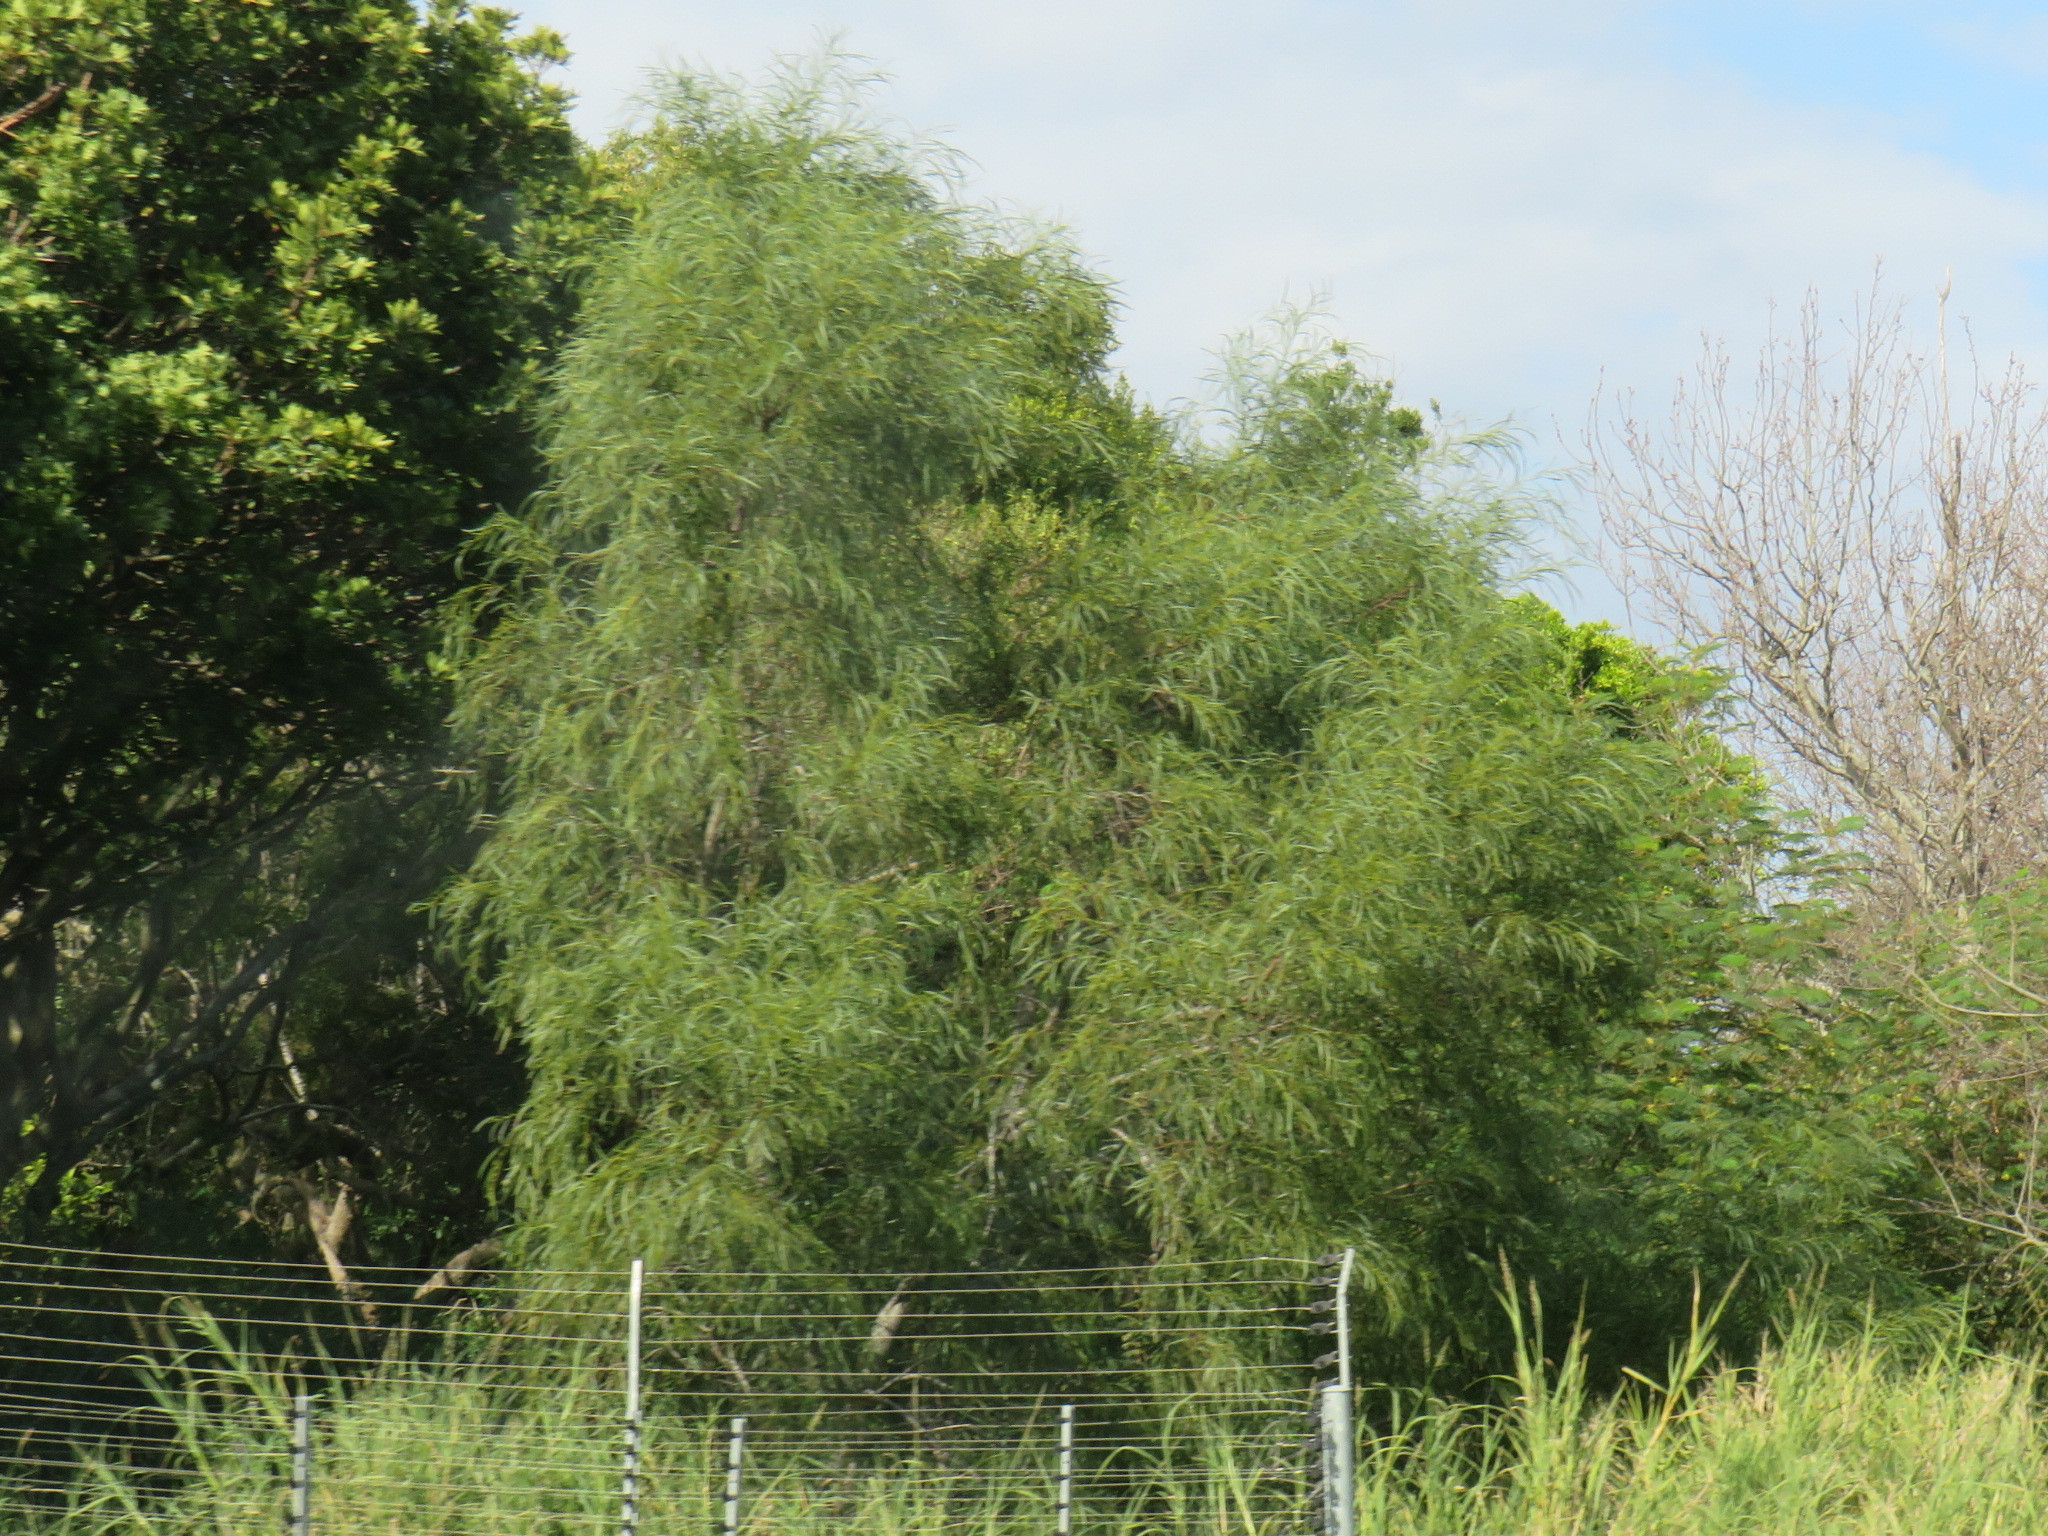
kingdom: Plantae
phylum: Tracheophyta
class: Magnoliopsida
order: Fabales
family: Fabaceae
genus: Acacia
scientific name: Acacia saligna
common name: Orange wattle
